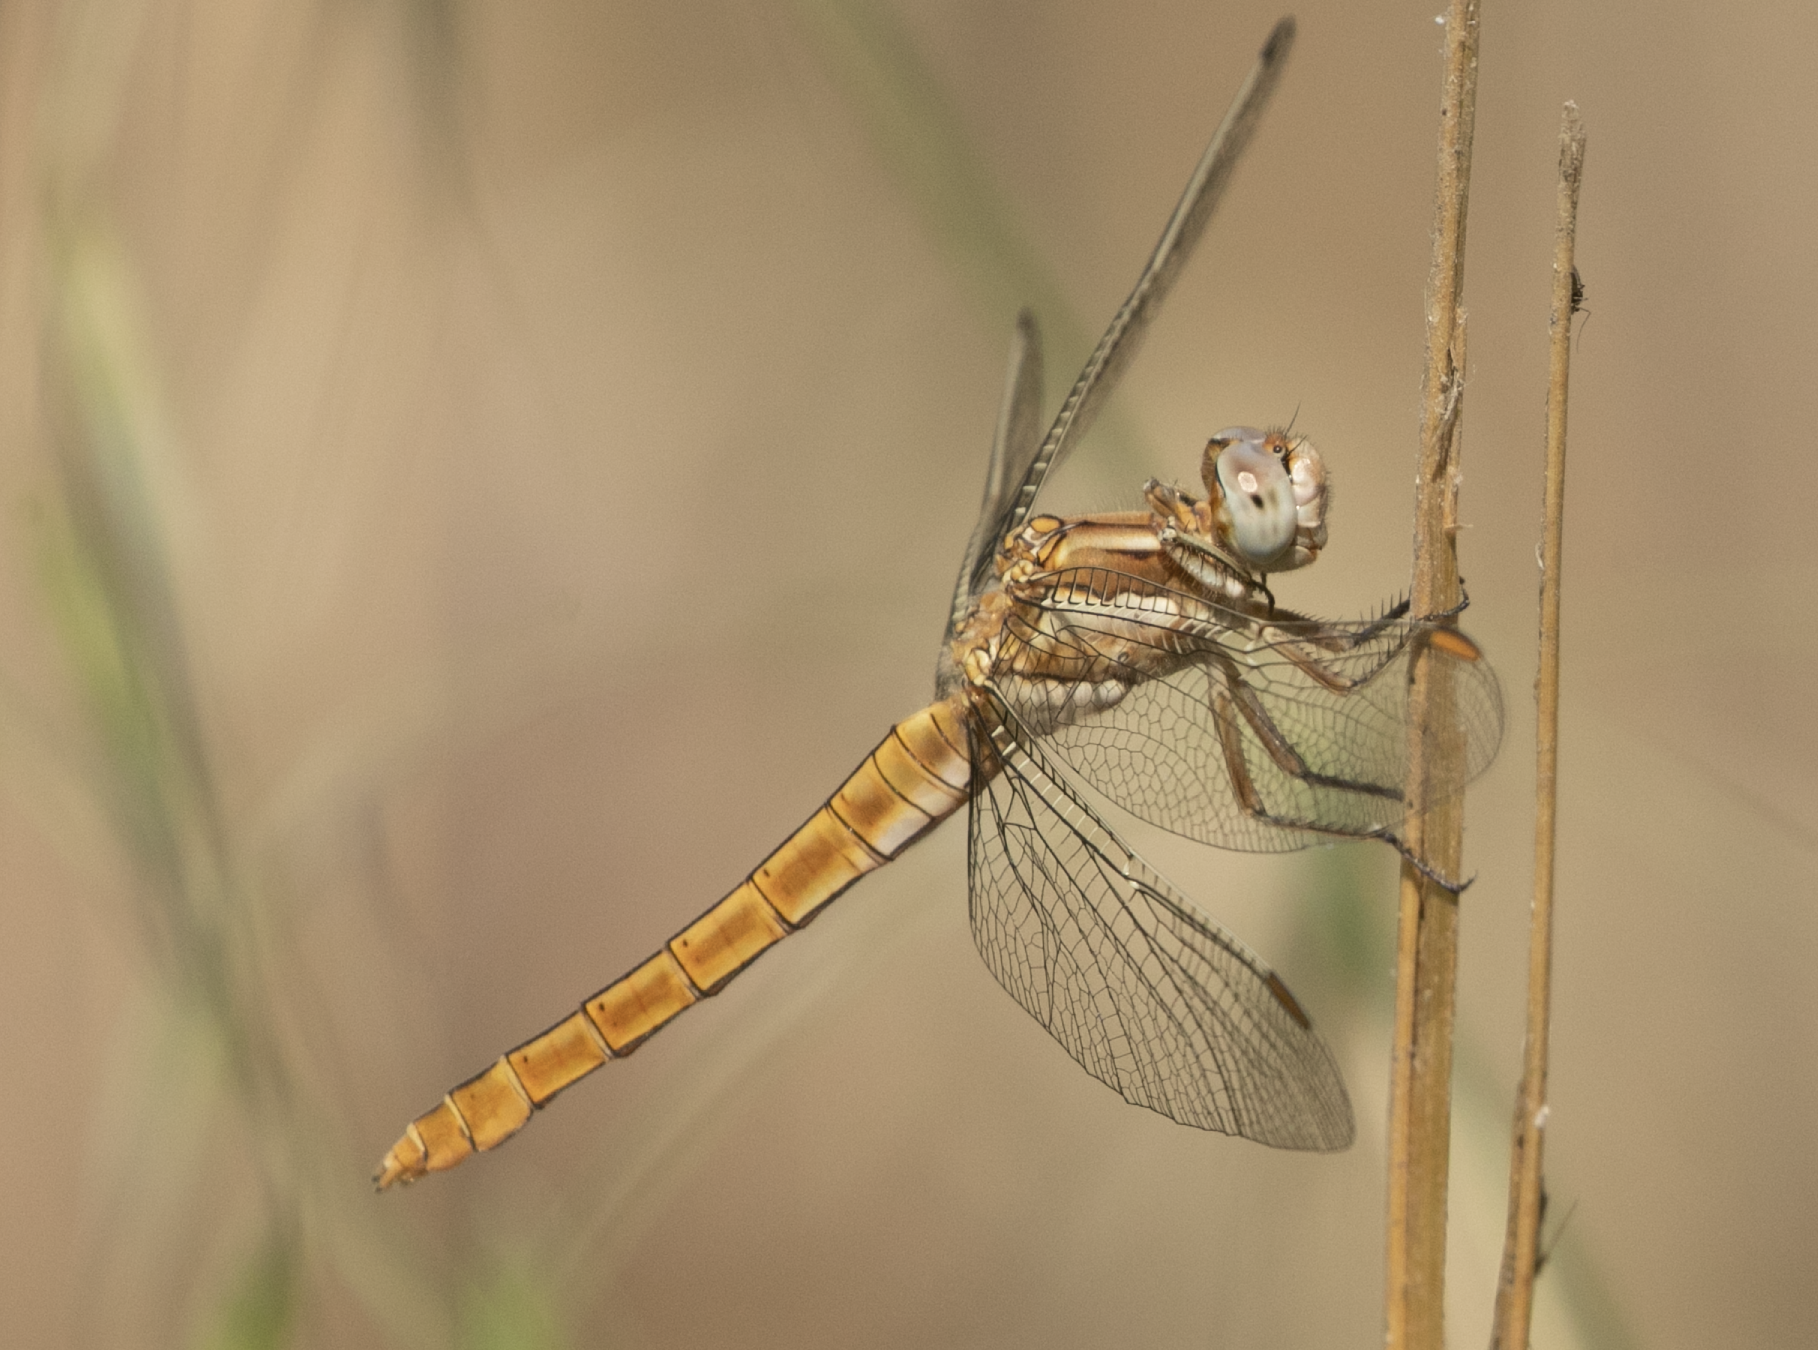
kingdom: Animalia
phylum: Arthropoda
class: Insecta
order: Odonata
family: Libellulidae
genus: Orthetrum
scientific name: Orthetrum brunneum
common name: Southern skimmer
